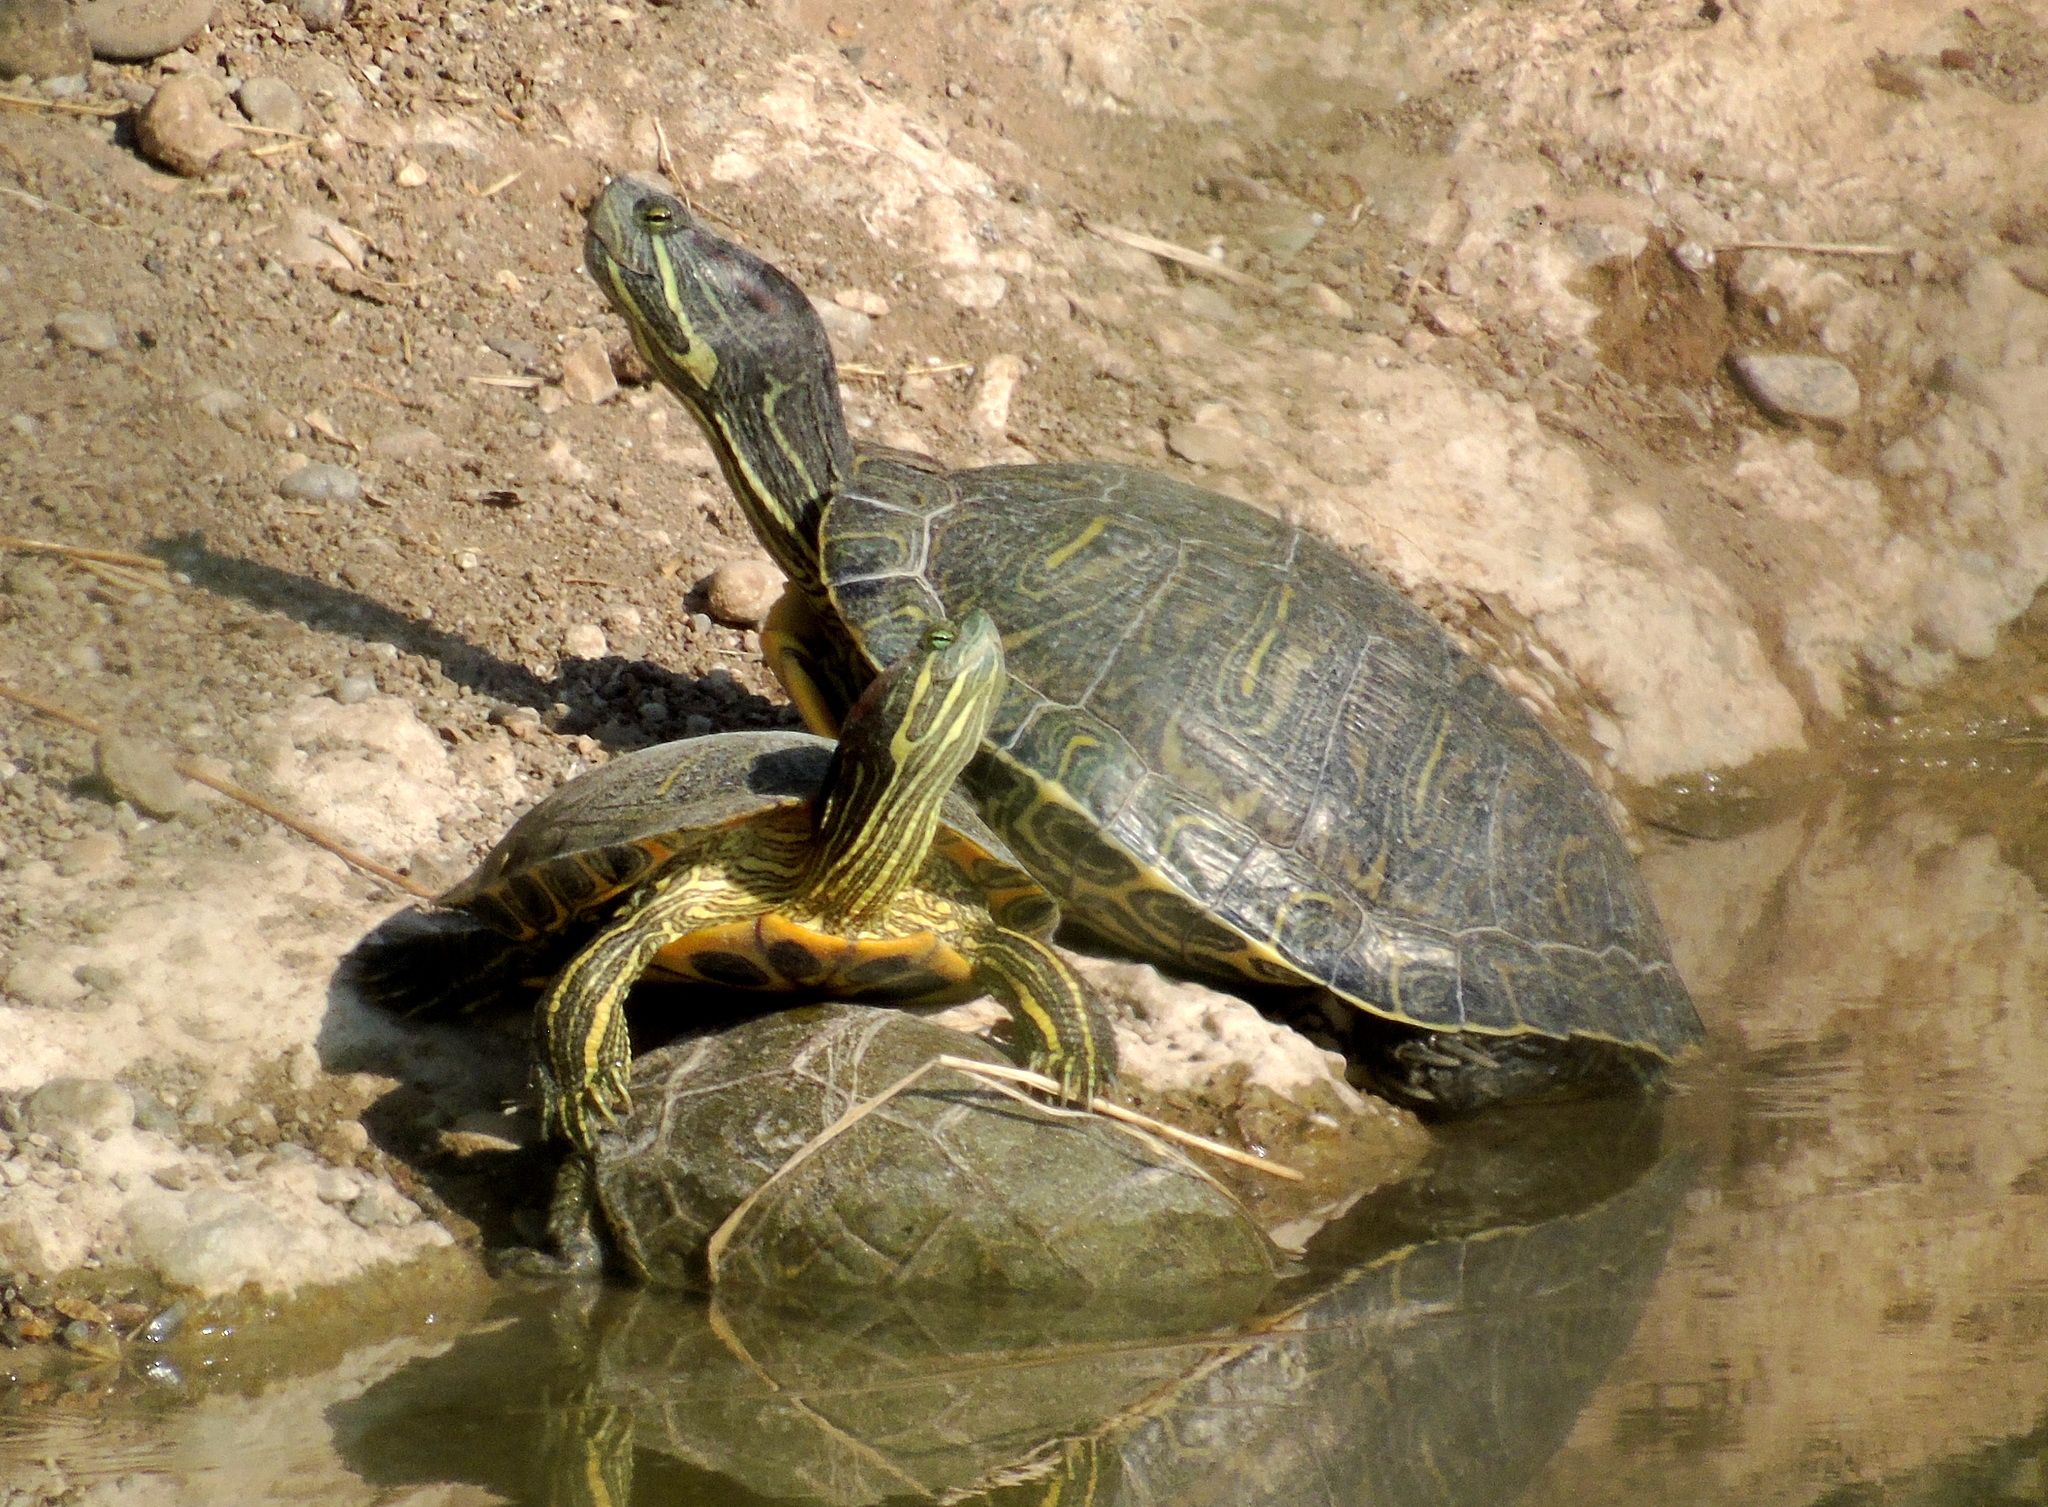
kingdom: Animalia
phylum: Chordata
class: Testudines
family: Emydidae
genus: Trachemys
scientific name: Trachemys scripta
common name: Slider
